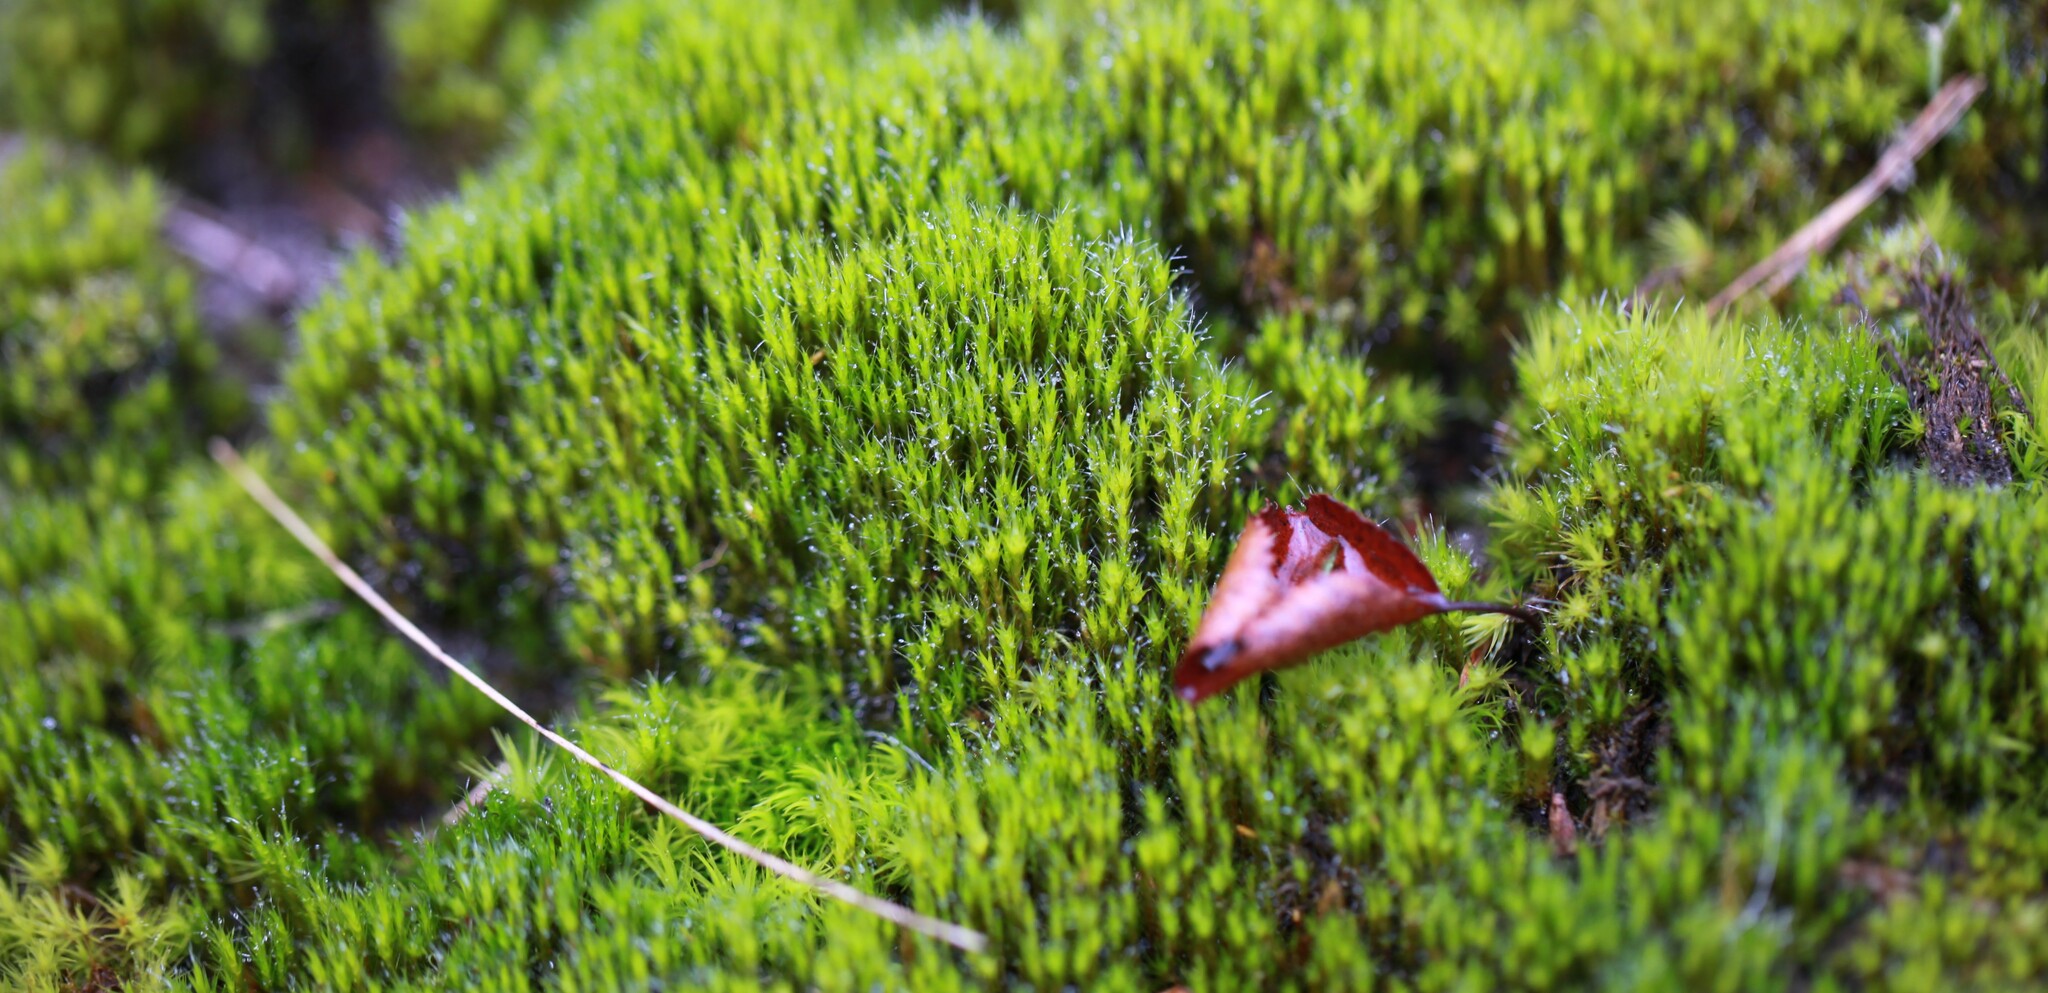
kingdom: Plantae
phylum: Bryophyta
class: Bryopsida
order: Dicranales
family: Leucobryaceae
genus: Campylopus
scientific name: Campylopus introflexus
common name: Heath star moss
